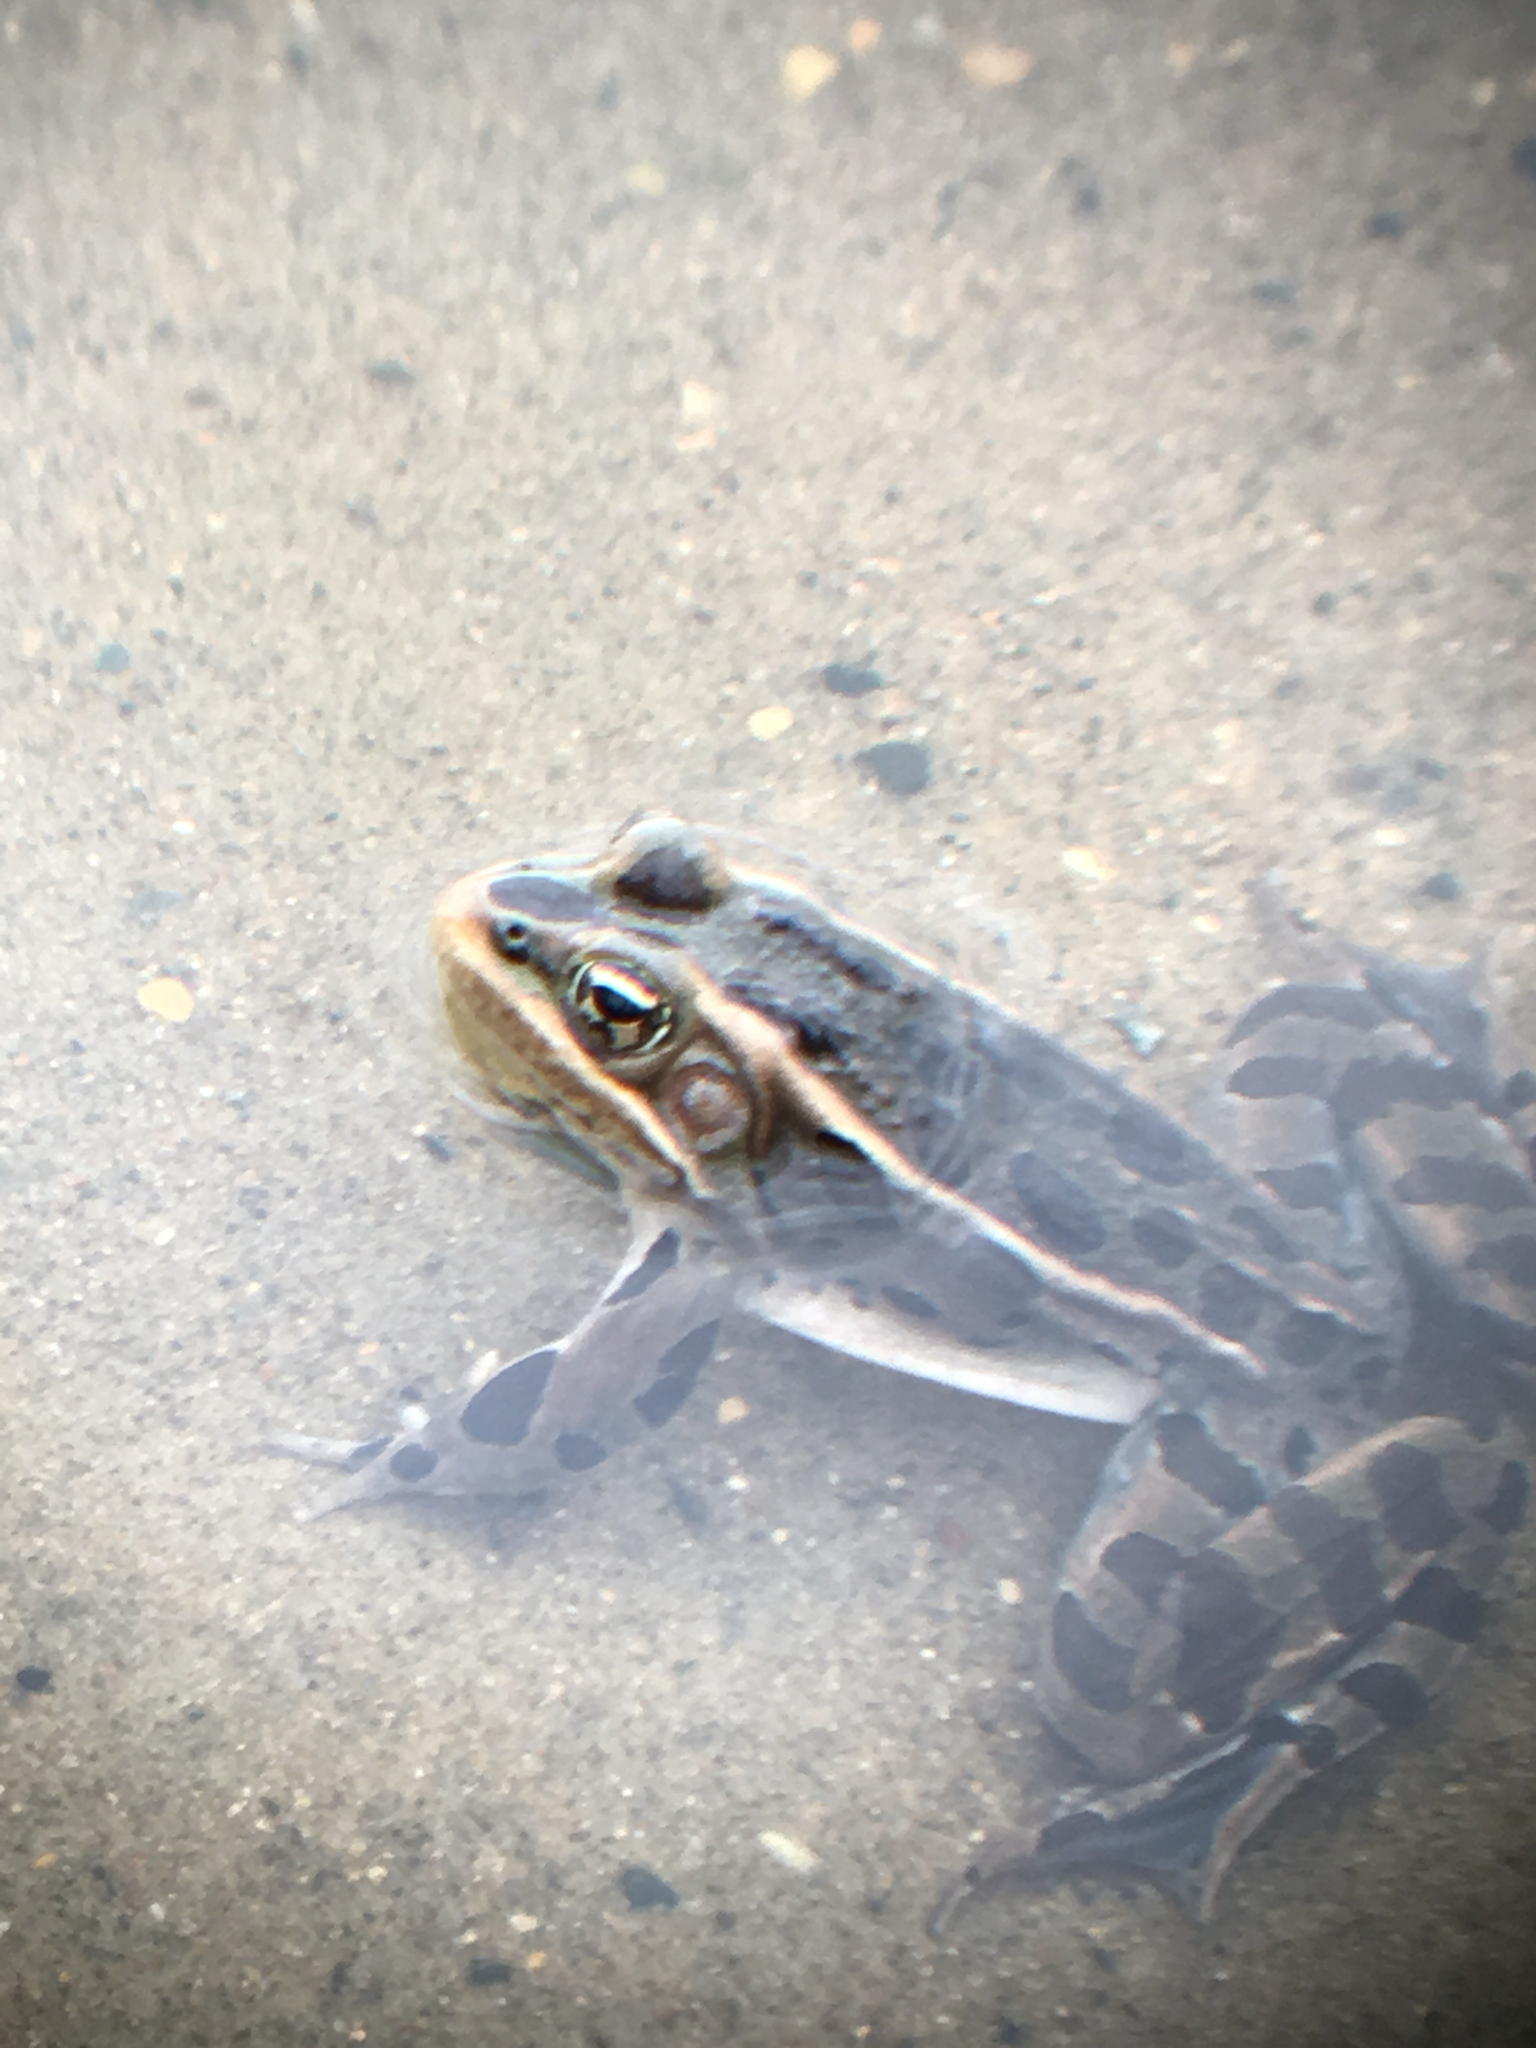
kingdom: Animalia
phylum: Chordata
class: Amphibia
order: Anura
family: Ranidae
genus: Lithobates
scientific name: Lithobates pipiens
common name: Northern leopard frog
